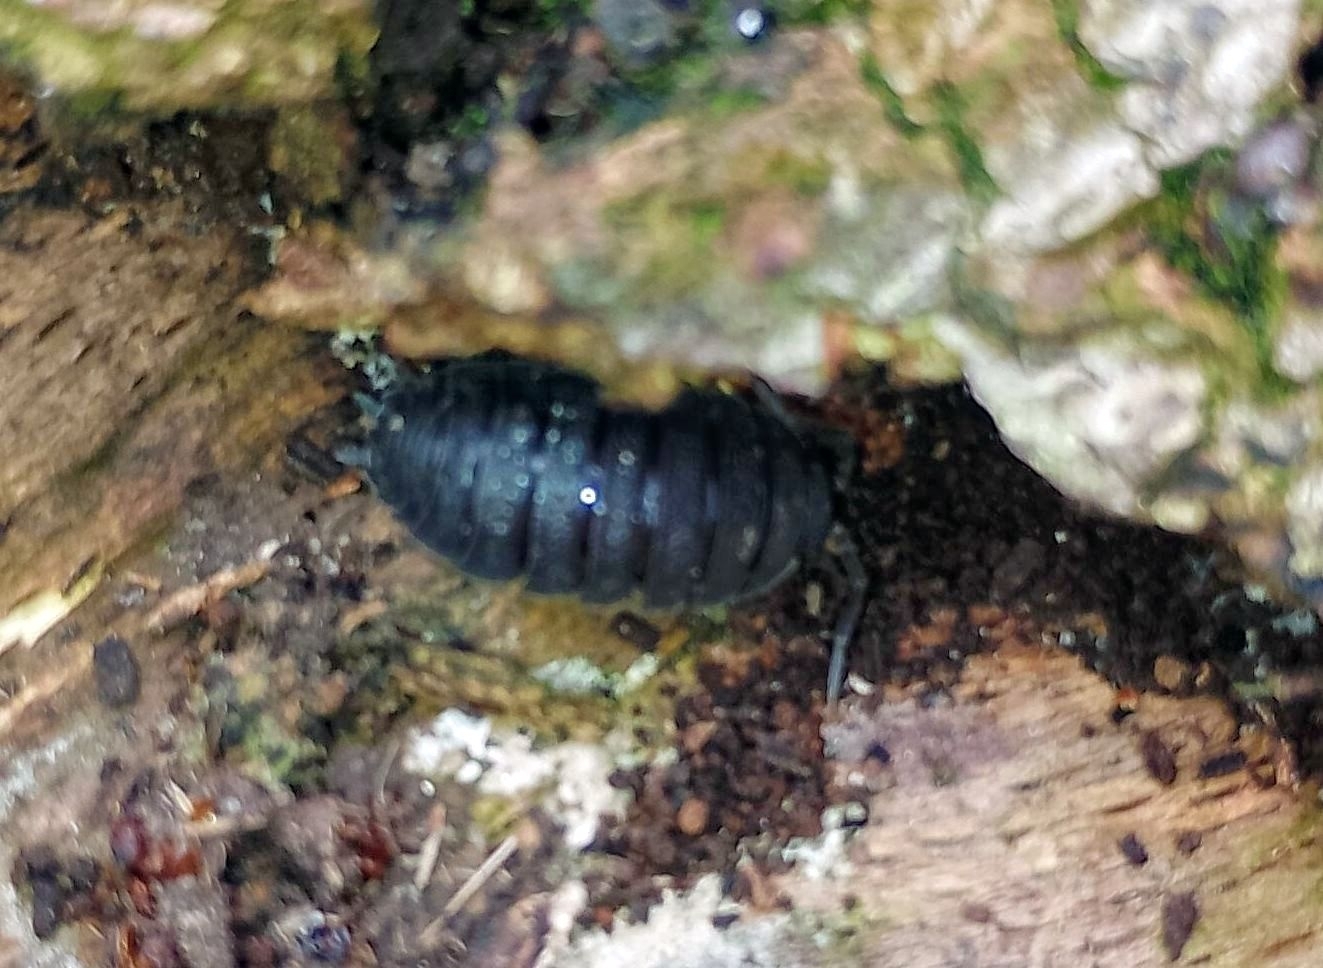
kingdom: Animalia
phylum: Arthropoda
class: Malacostraca
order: Isopoda
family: Porcellionidae
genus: Porcellio
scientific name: Porcellio scaber
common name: Common rough woodlouse
